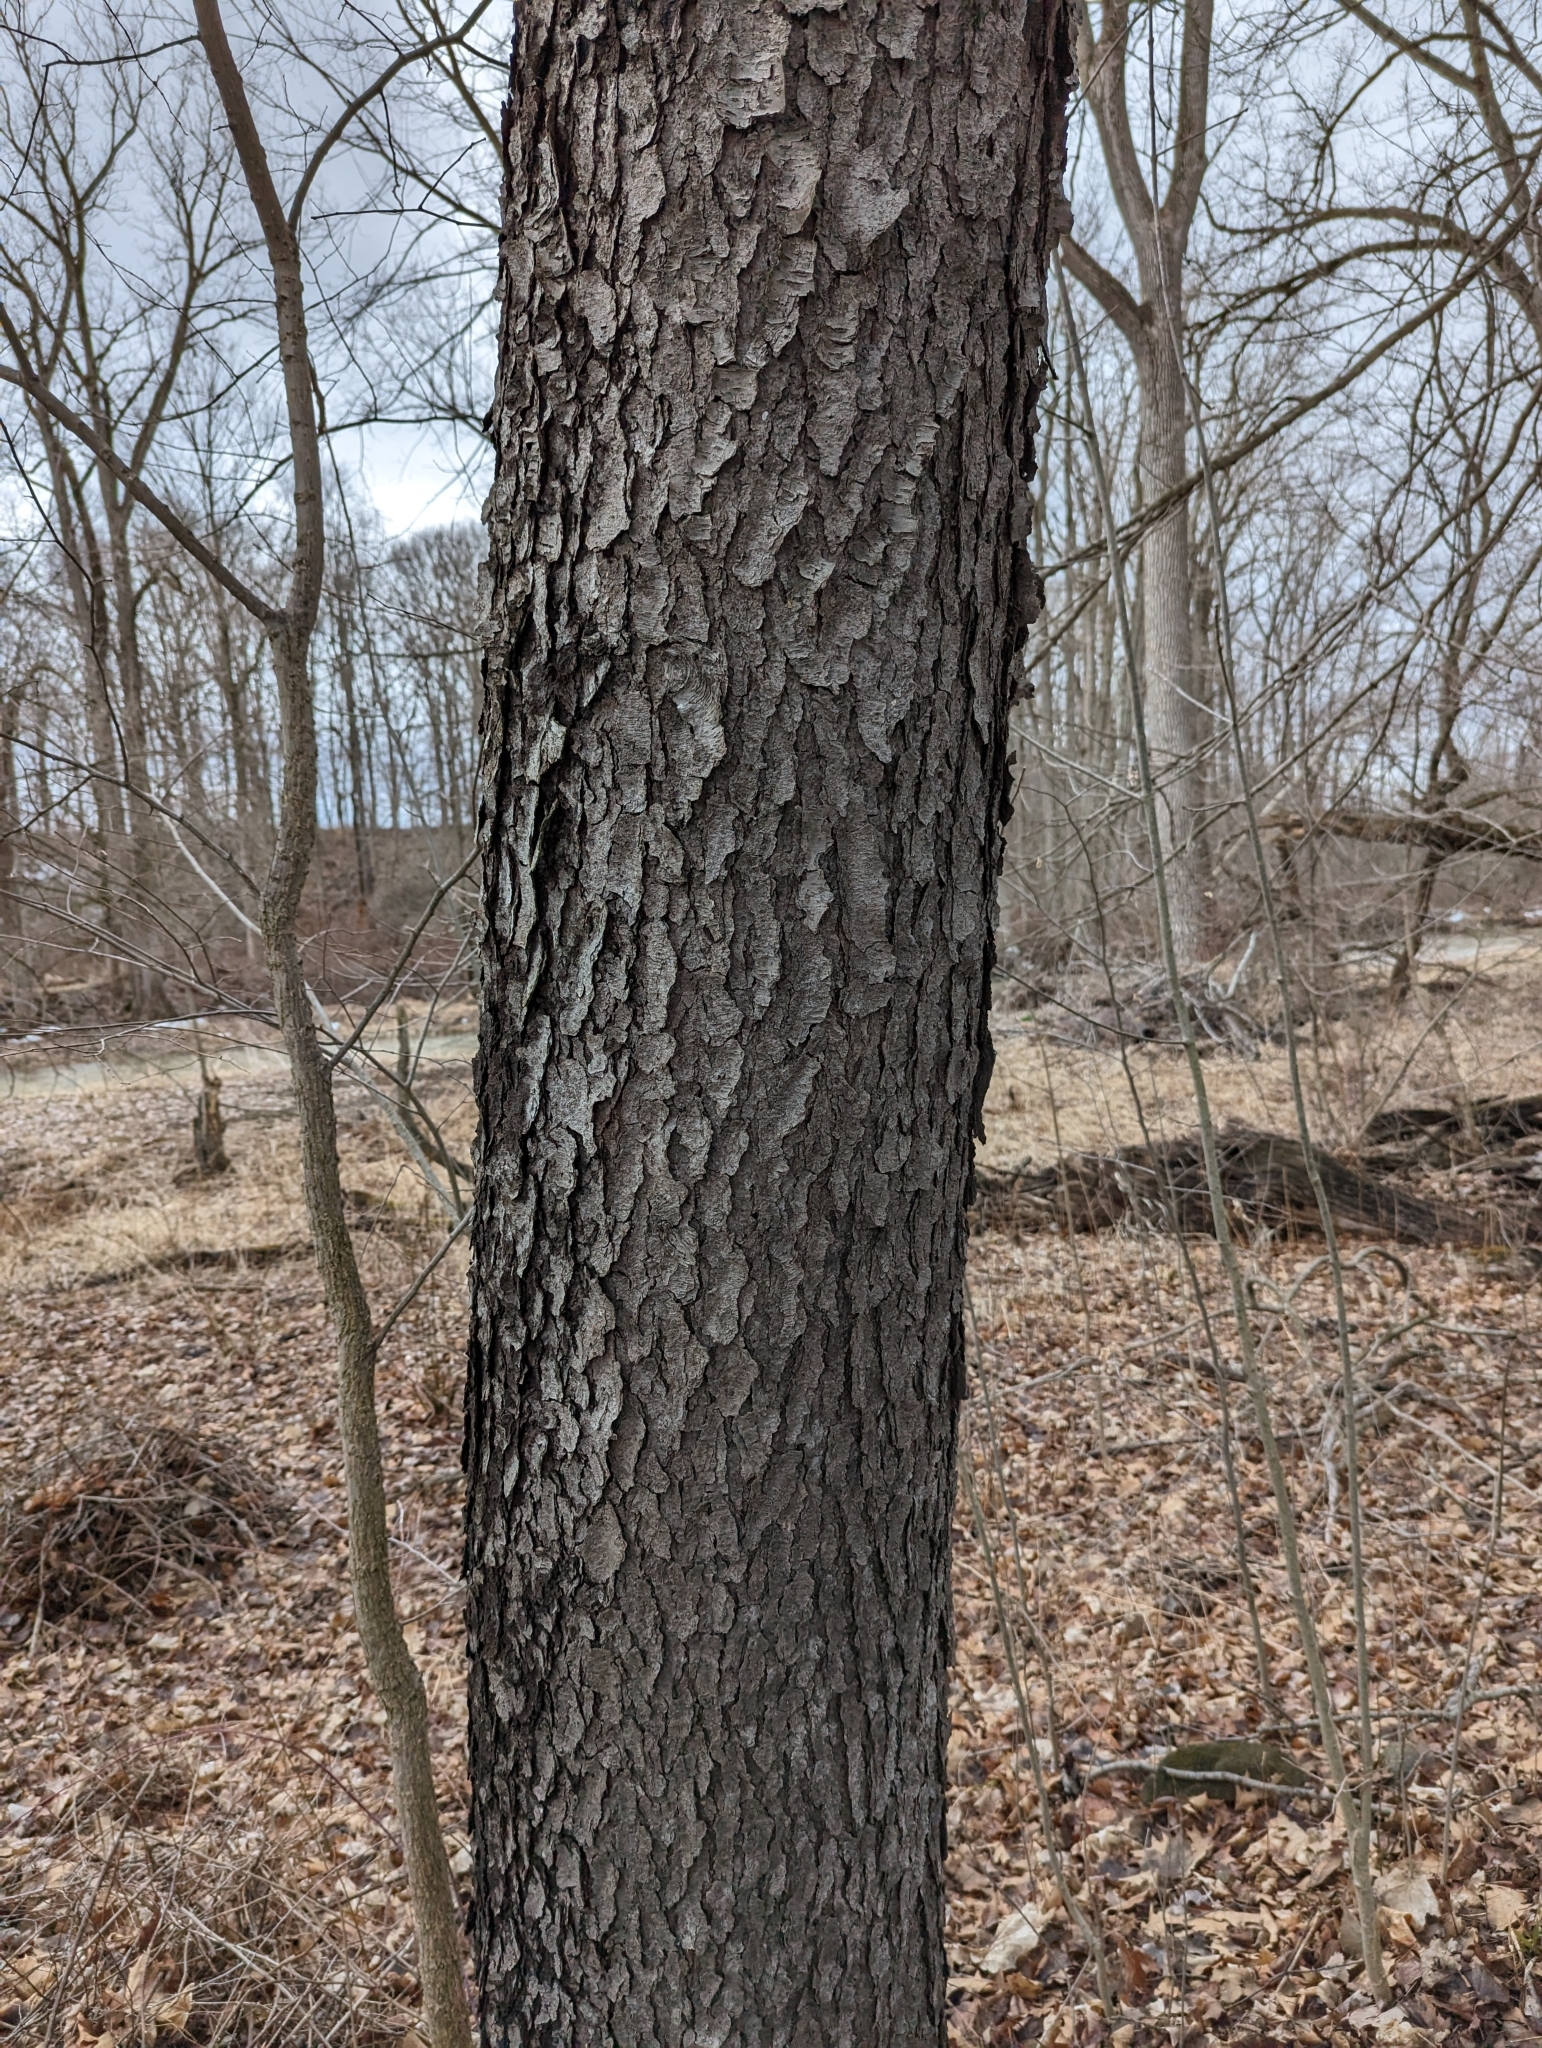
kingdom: Plantae
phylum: Tracheophyta
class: Magnoliopsida
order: Rosales
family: Rosaceae
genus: Prunus
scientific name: Prunus serotina
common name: Black cherry
